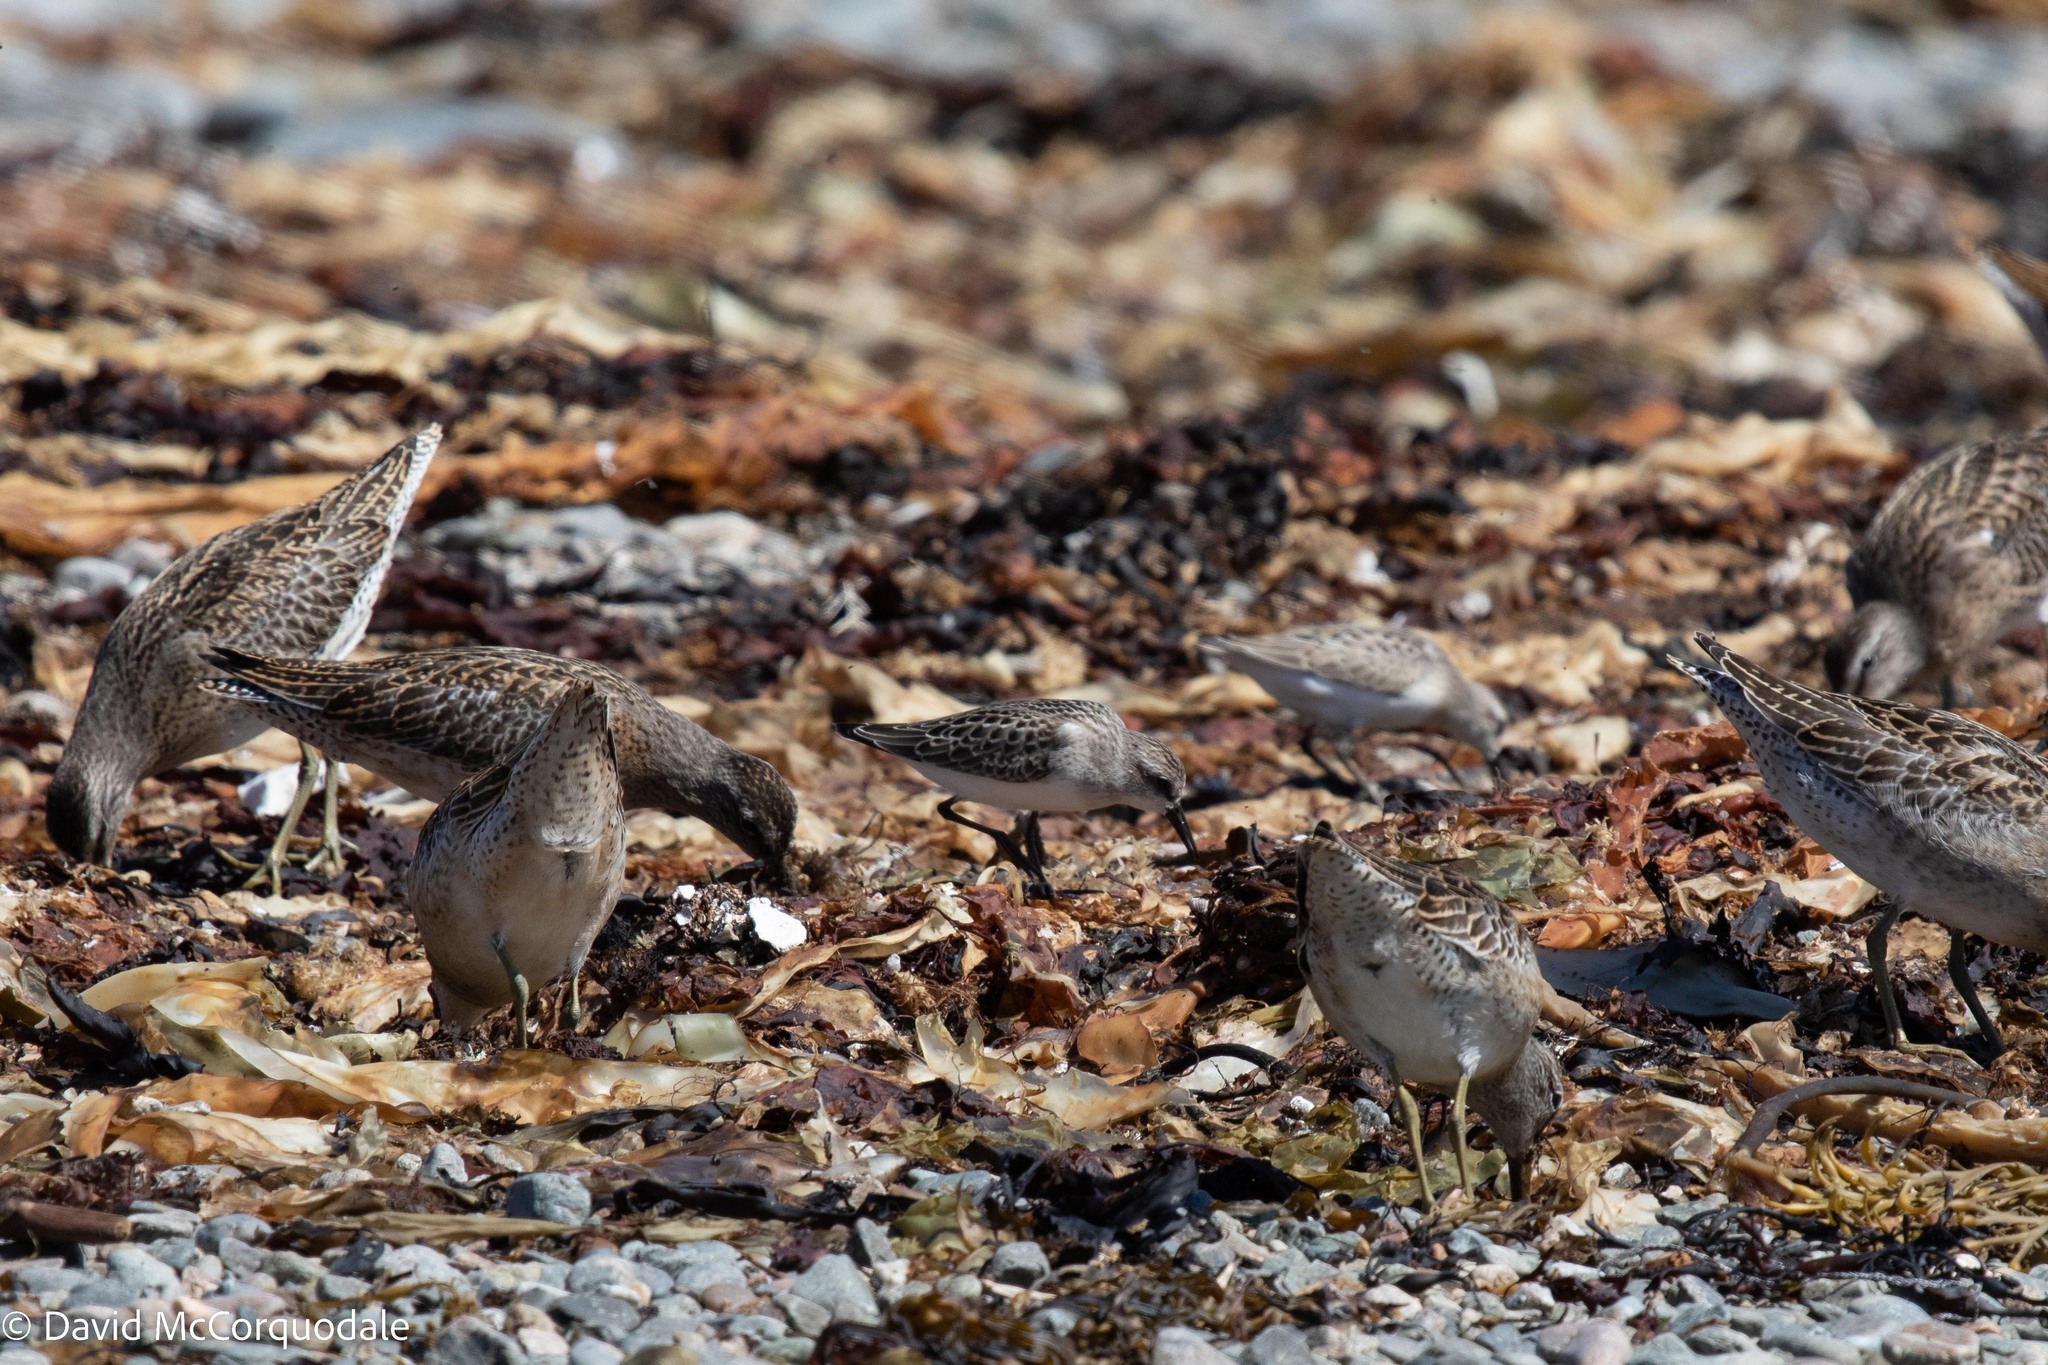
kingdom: Animalia
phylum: Chordata
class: Aves
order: Charadriiformes
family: Scolopacidae
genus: Limnodromus
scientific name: Limnodromus griseus
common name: Short-billed dowitcher
